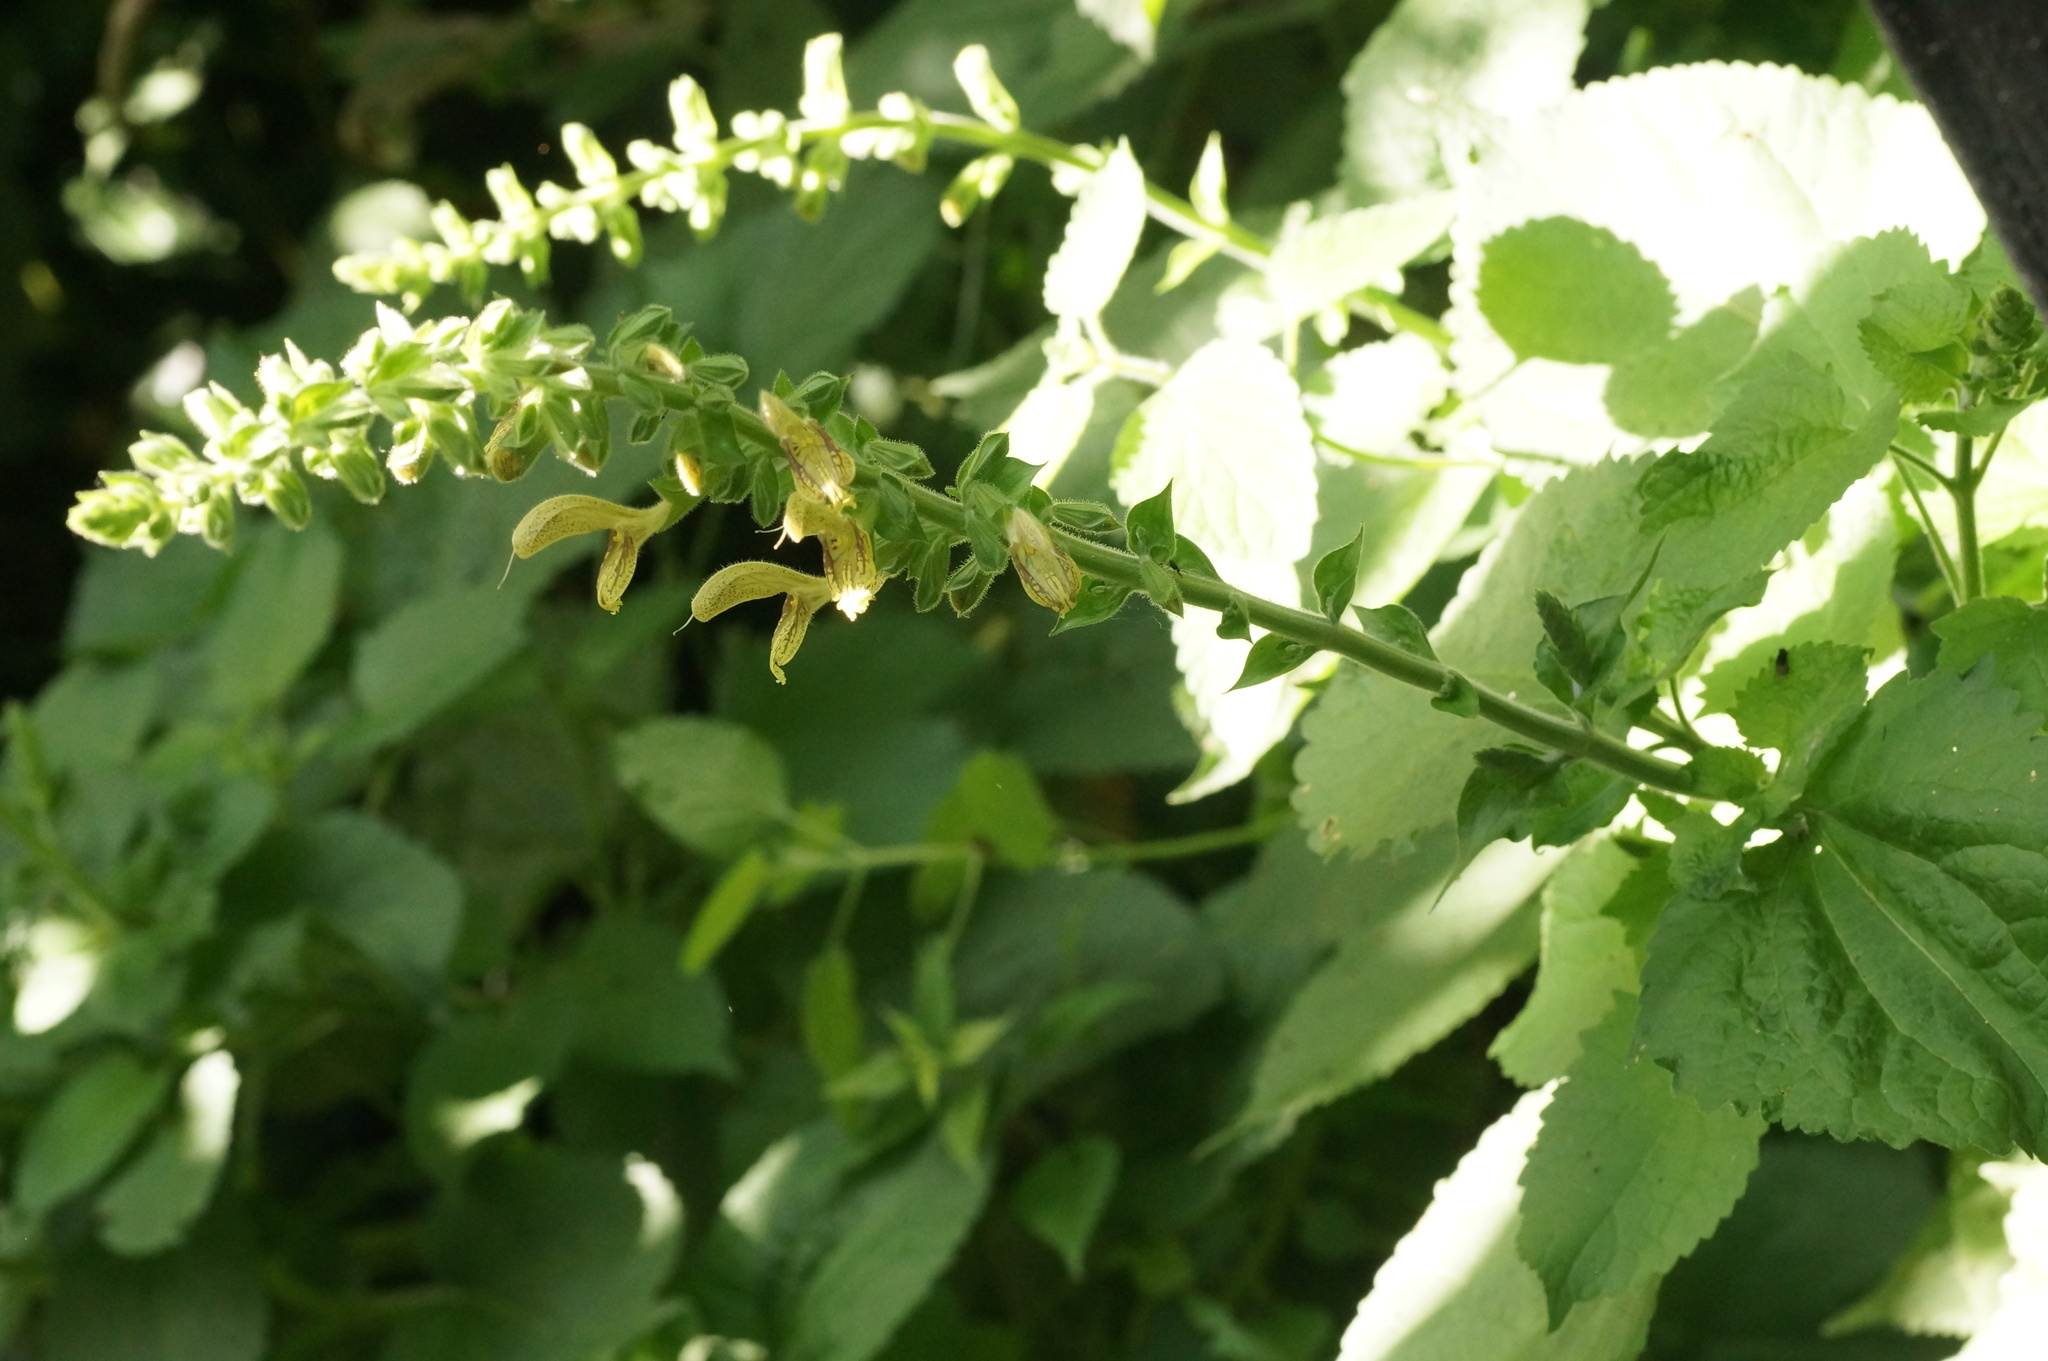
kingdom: Plantae
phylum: Tracheophyta
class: Magnoliopsida
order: Lamiales
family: Lamiaceae
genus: Salvia
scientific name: Salvia glutinosa
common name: Sticky clary
